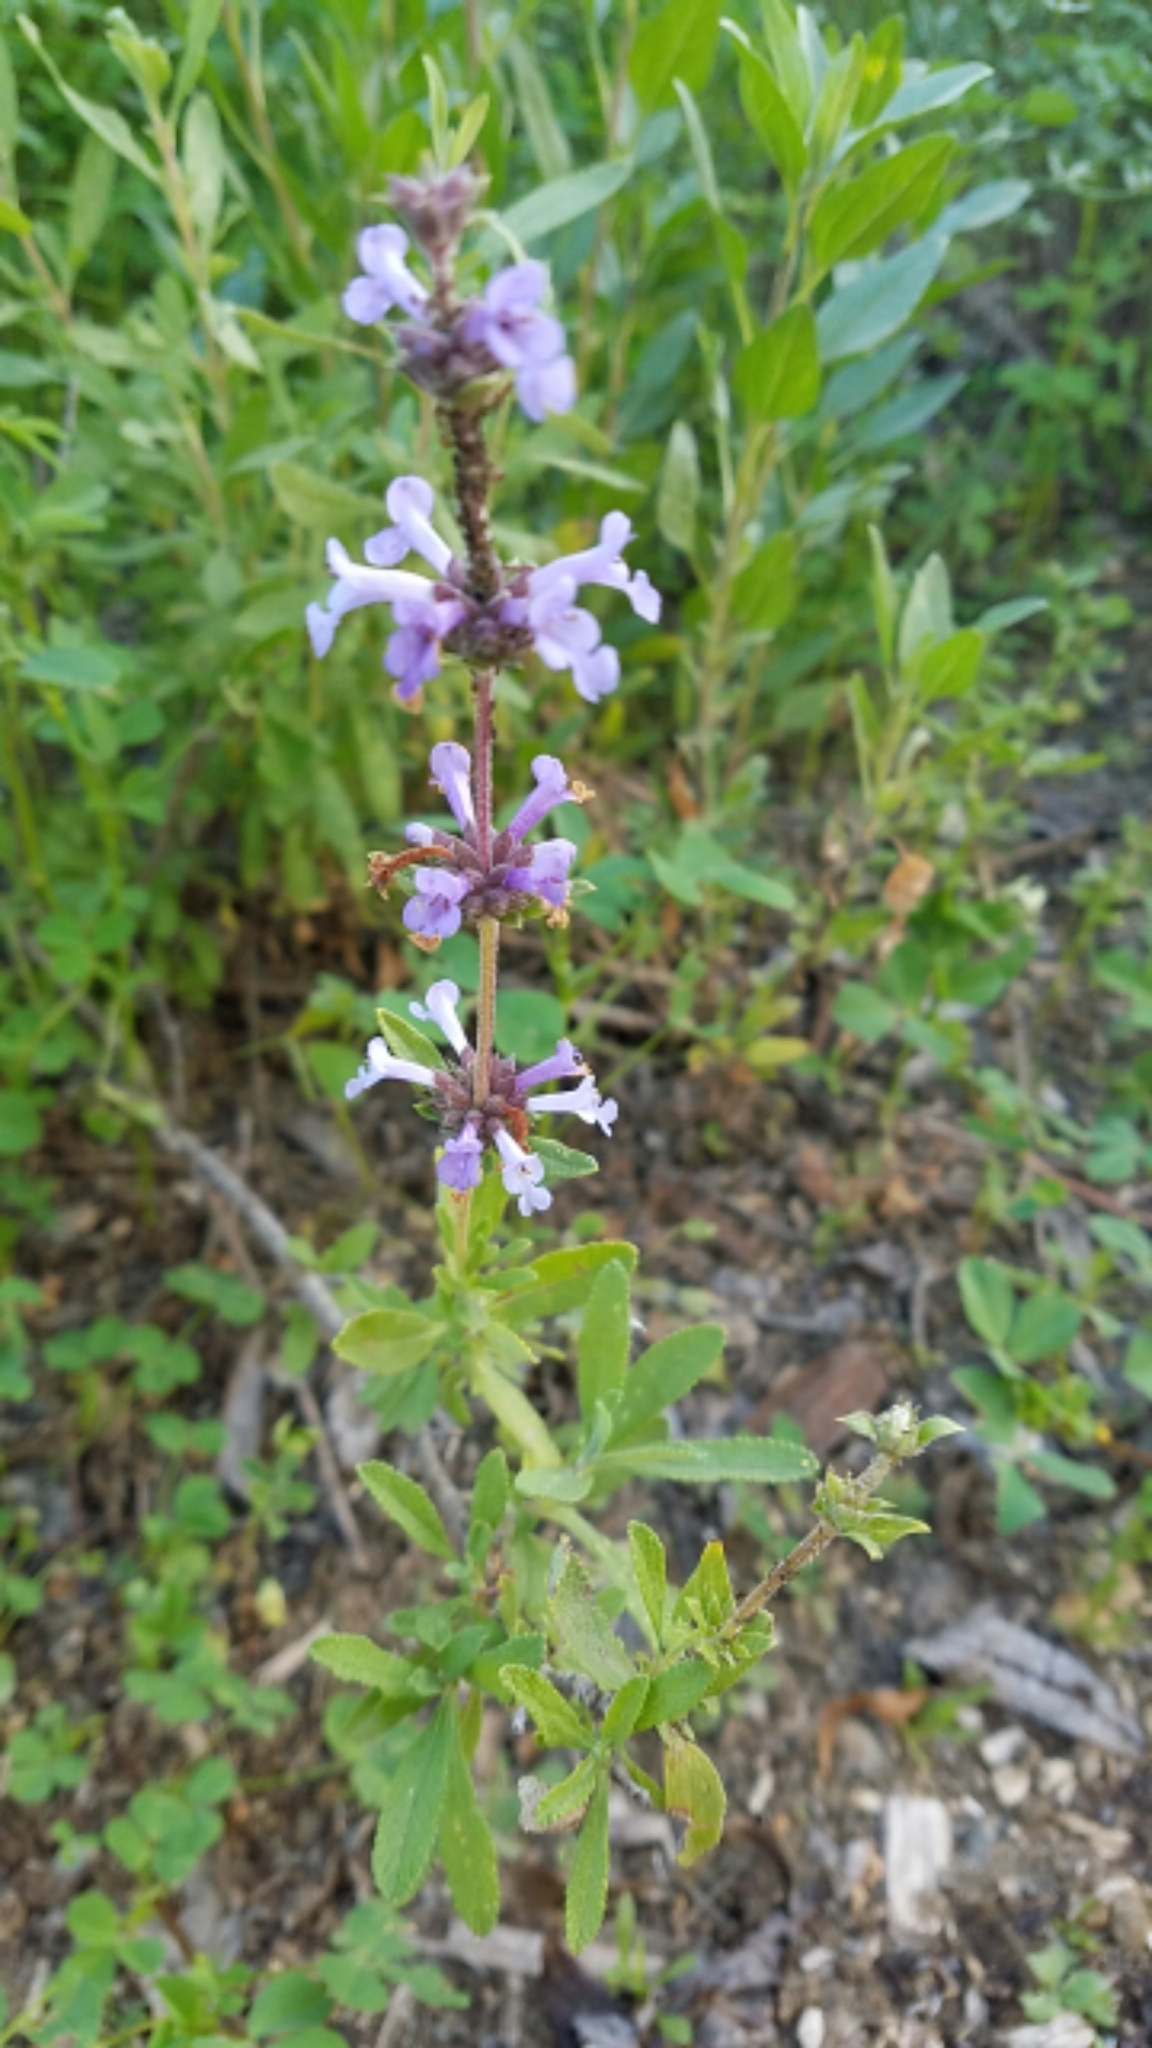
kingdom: Plantae
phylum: Tracheophyta
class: Magnoliopsida
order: Lamiales
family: Lamiaceae
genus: Salvia
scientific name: Salvia mellifera
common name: Black sage
